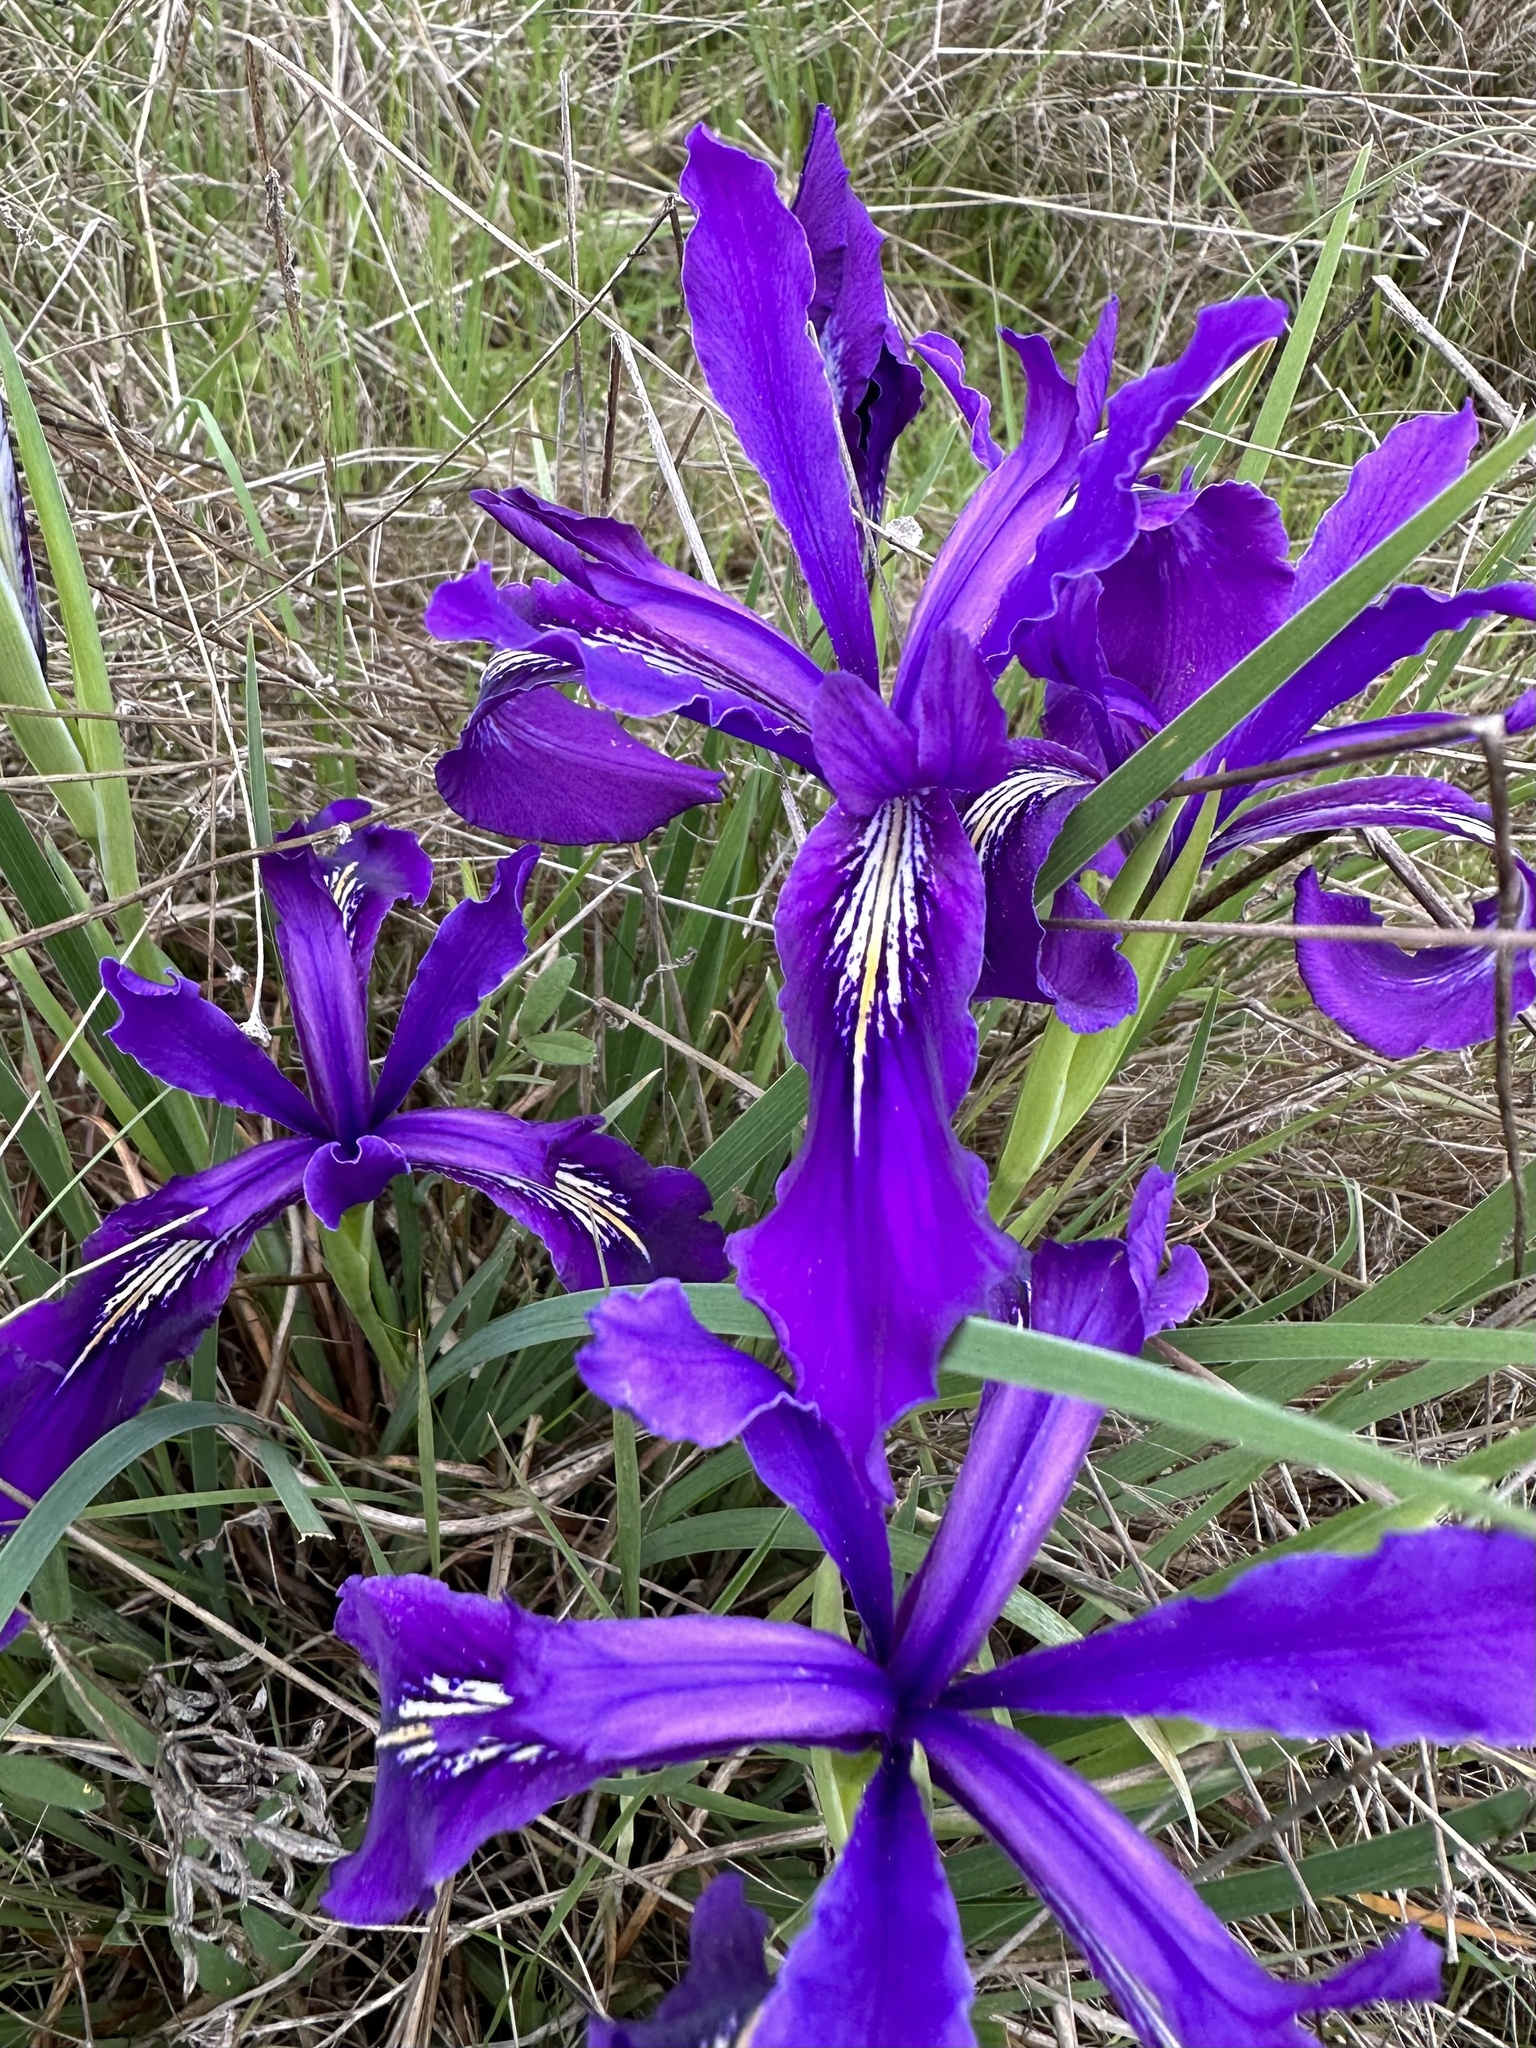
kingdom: Plantae
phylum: Tracheophyta
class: Liliopsida
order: Asparagales
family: Iridaceae
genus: Iris
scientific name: Iris tenax
